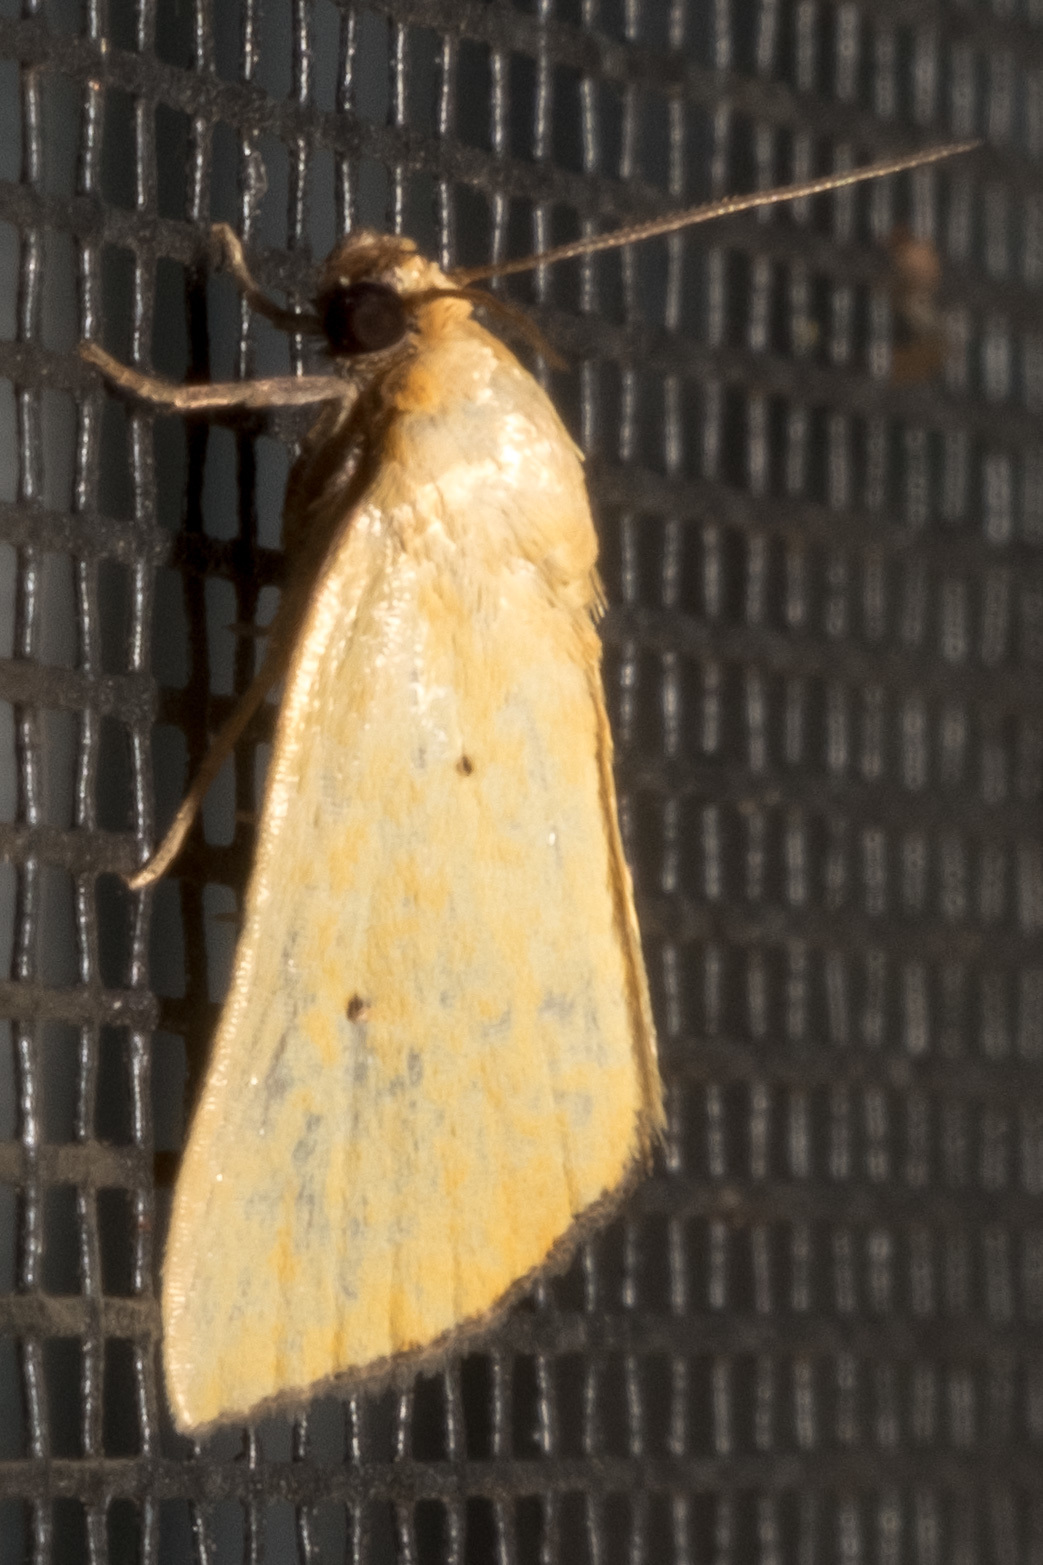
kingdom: Animalia
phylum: Arthropoda
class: Insecta
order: Lepidoptera
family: Noctuidae
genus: Marimatha
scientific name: Marimatha nigrofimbria
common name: Black-bordered lemon moth
